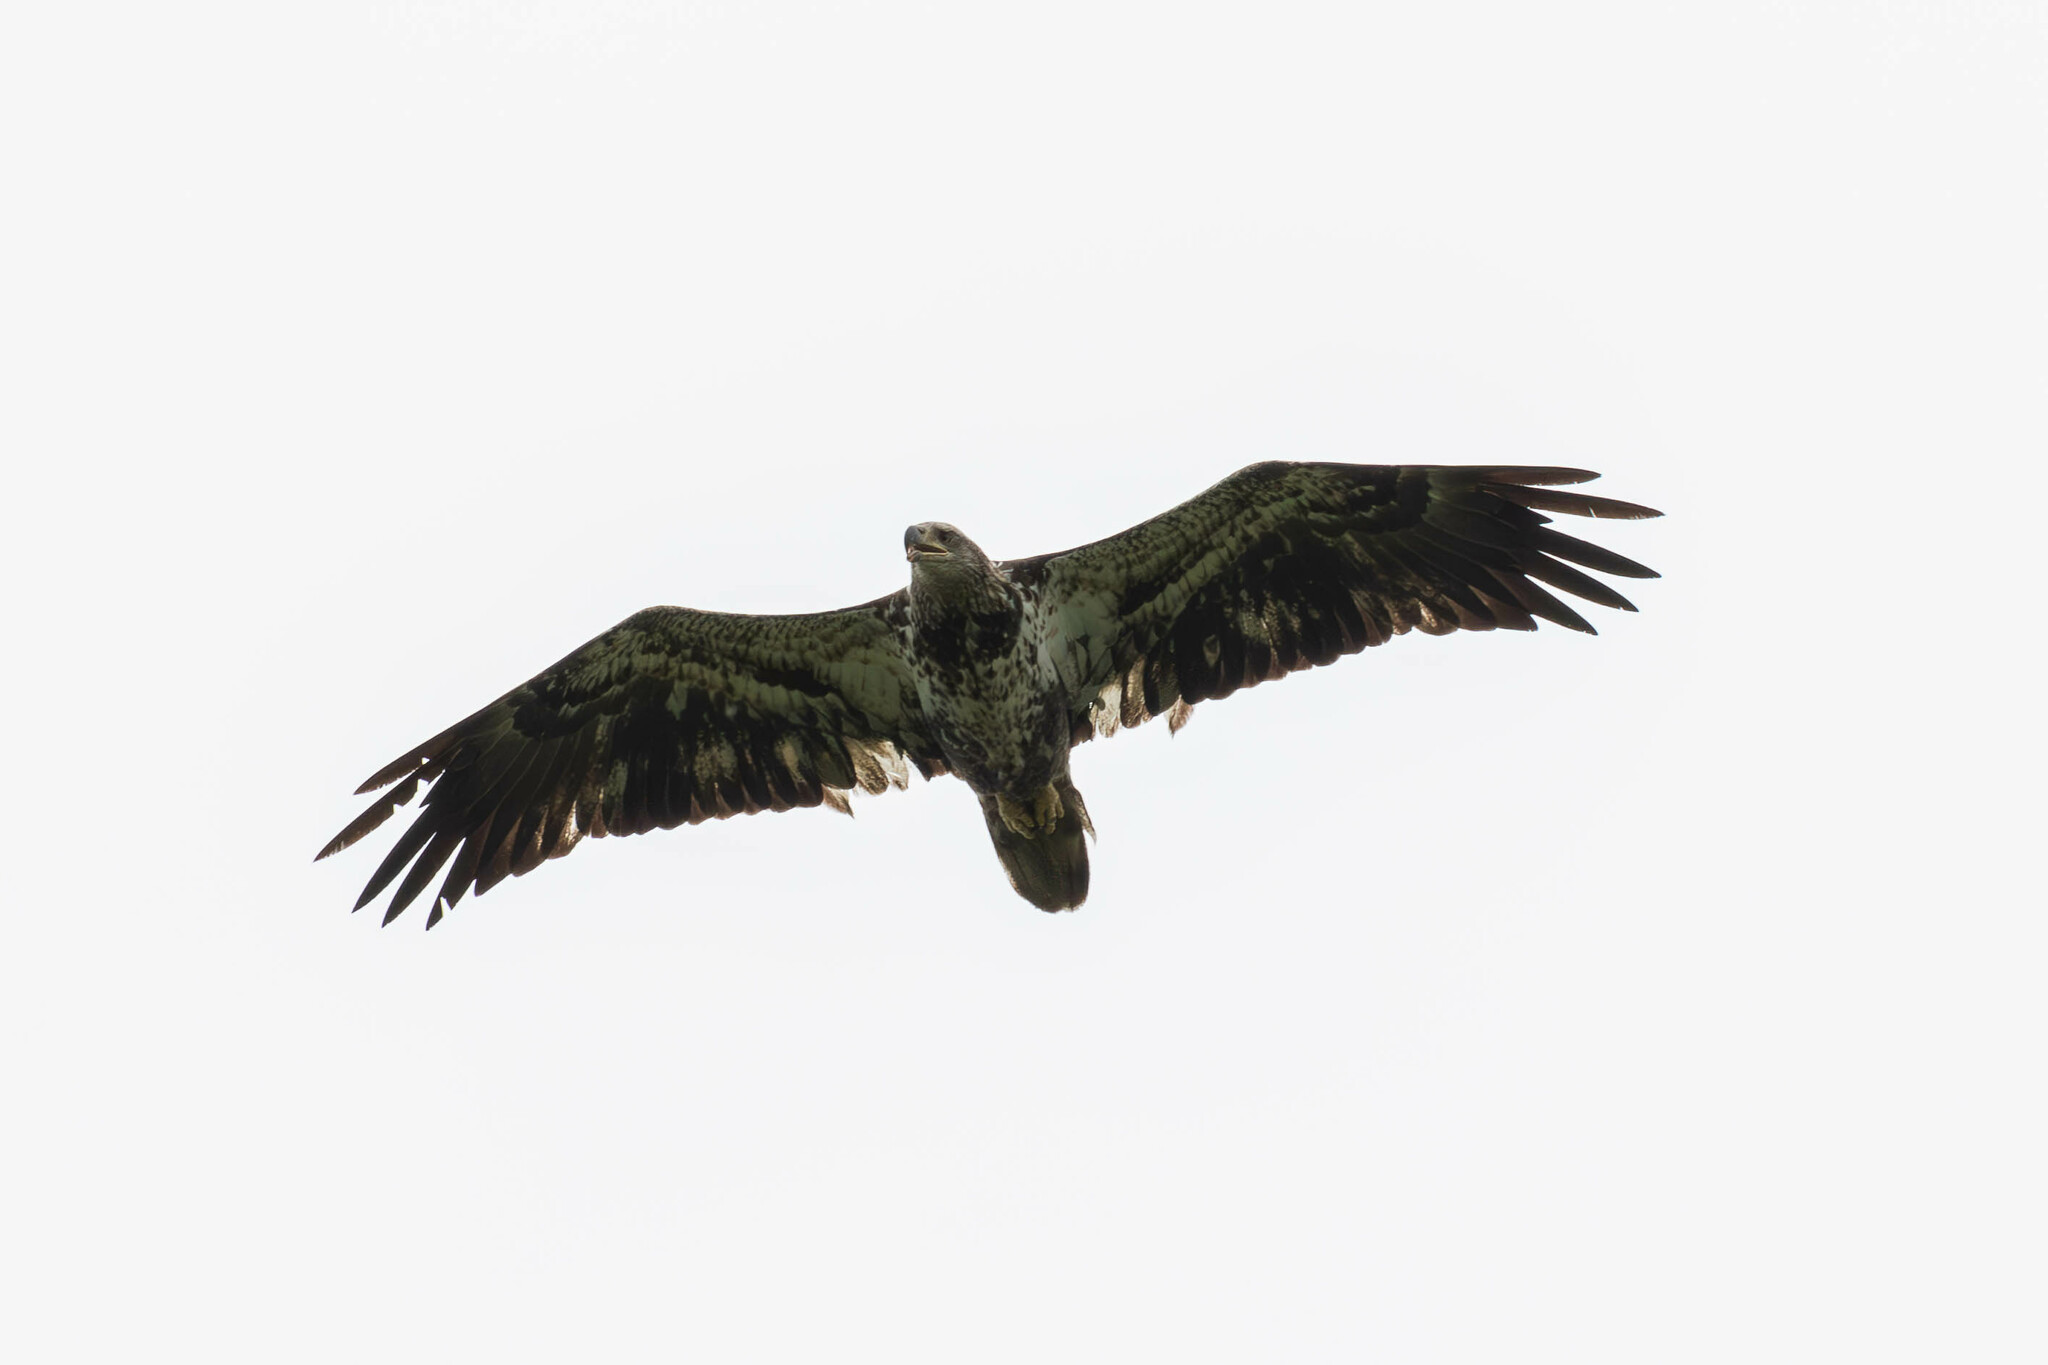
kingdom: Animalia
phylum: Chordata
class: Aves
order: Accipitriformes
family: Accipitridae
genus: Haliaeetus
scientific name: Haliaeetus leucocephalus
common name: Bald eagle
